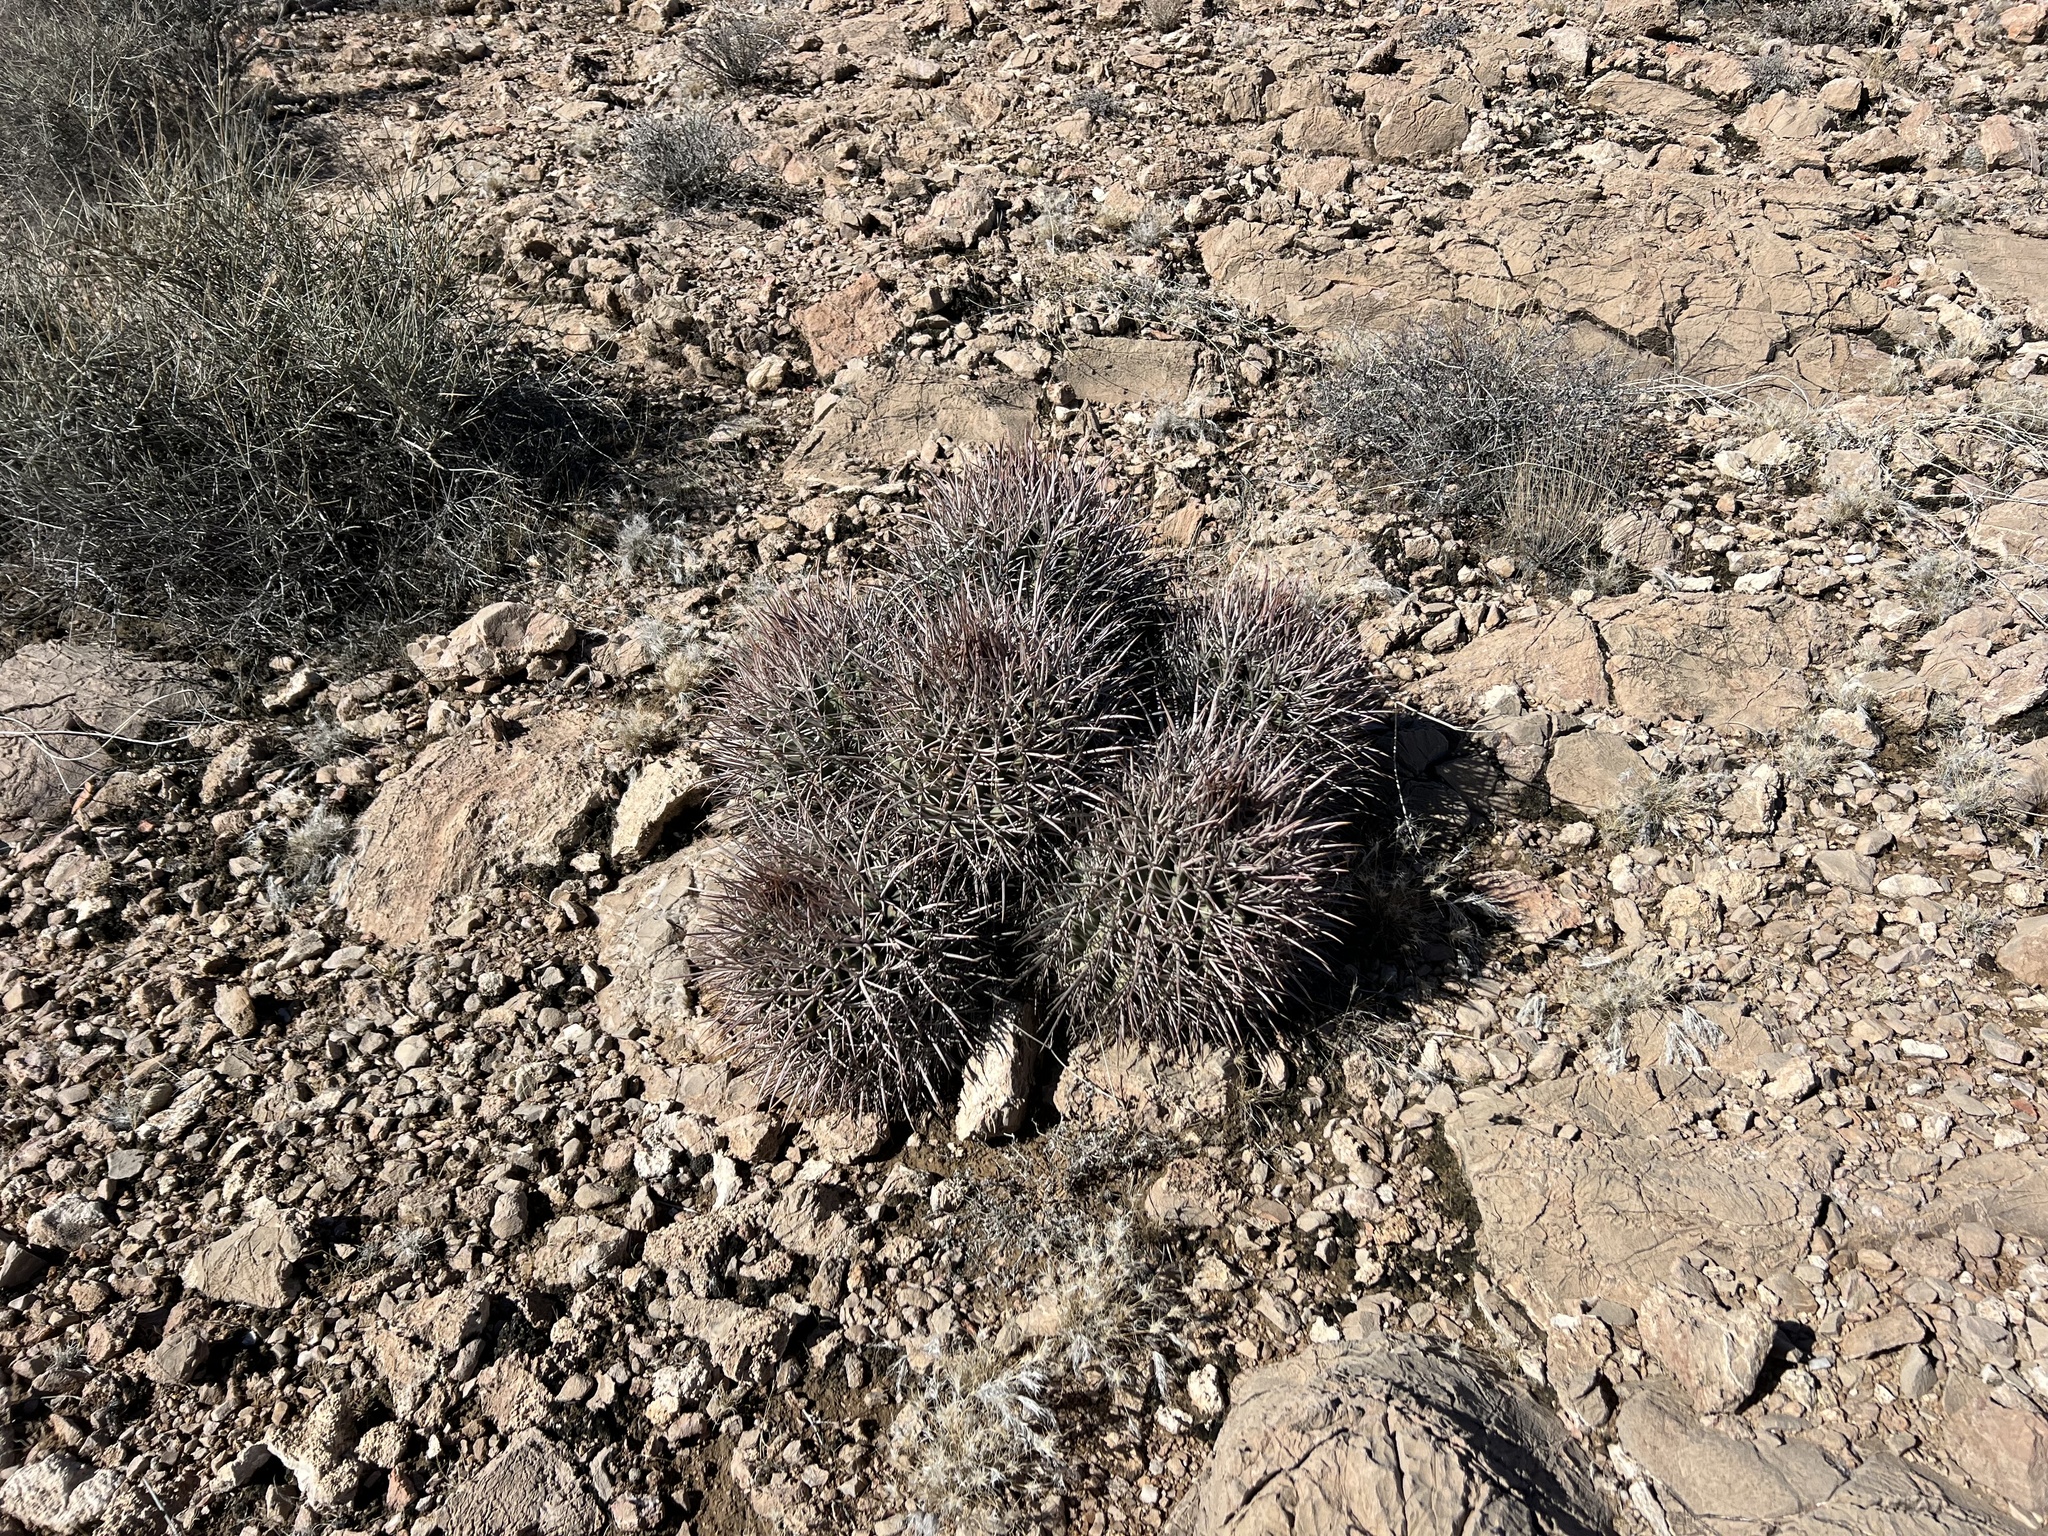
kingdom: Plantae
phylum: Tracheophyta
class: Magnoliopsida
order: Caryophyllales
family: Cactaceae
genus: Echinocactus
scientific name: Echinocactus polycephalus
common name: Cottontop cactus
